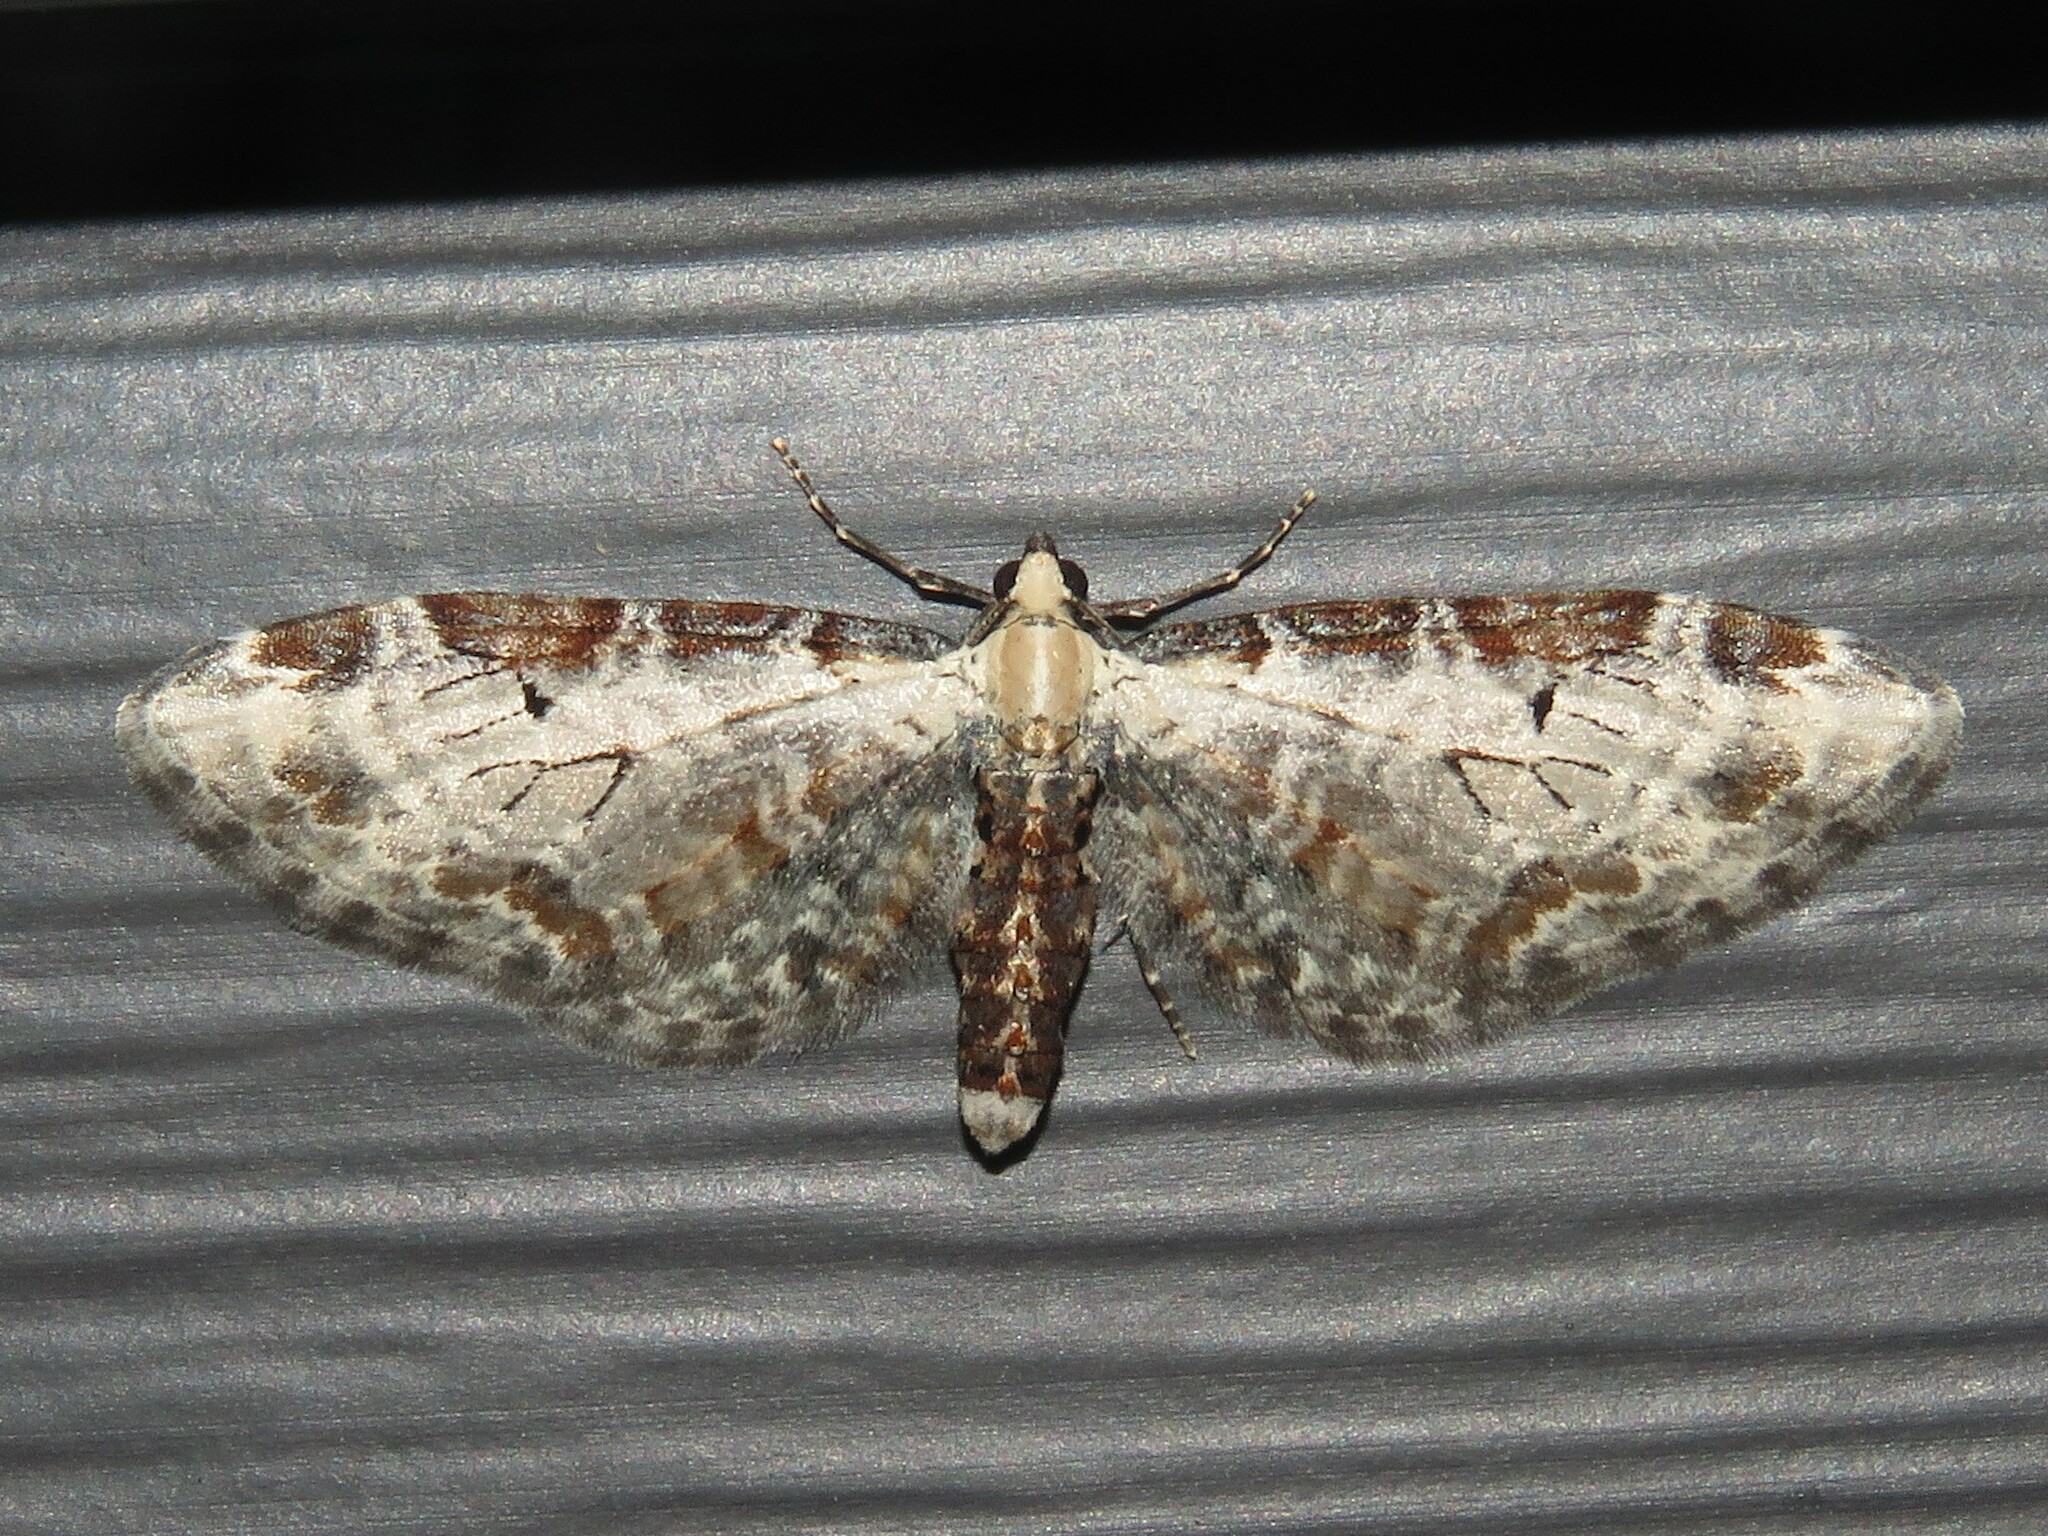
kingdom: Animalia
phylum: Arthropoda
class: Insecta
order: Lepidoptera
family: Geometridae
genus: Eupithecia
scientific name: Eupithecia ravocostaliata
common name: Great varigated pug
